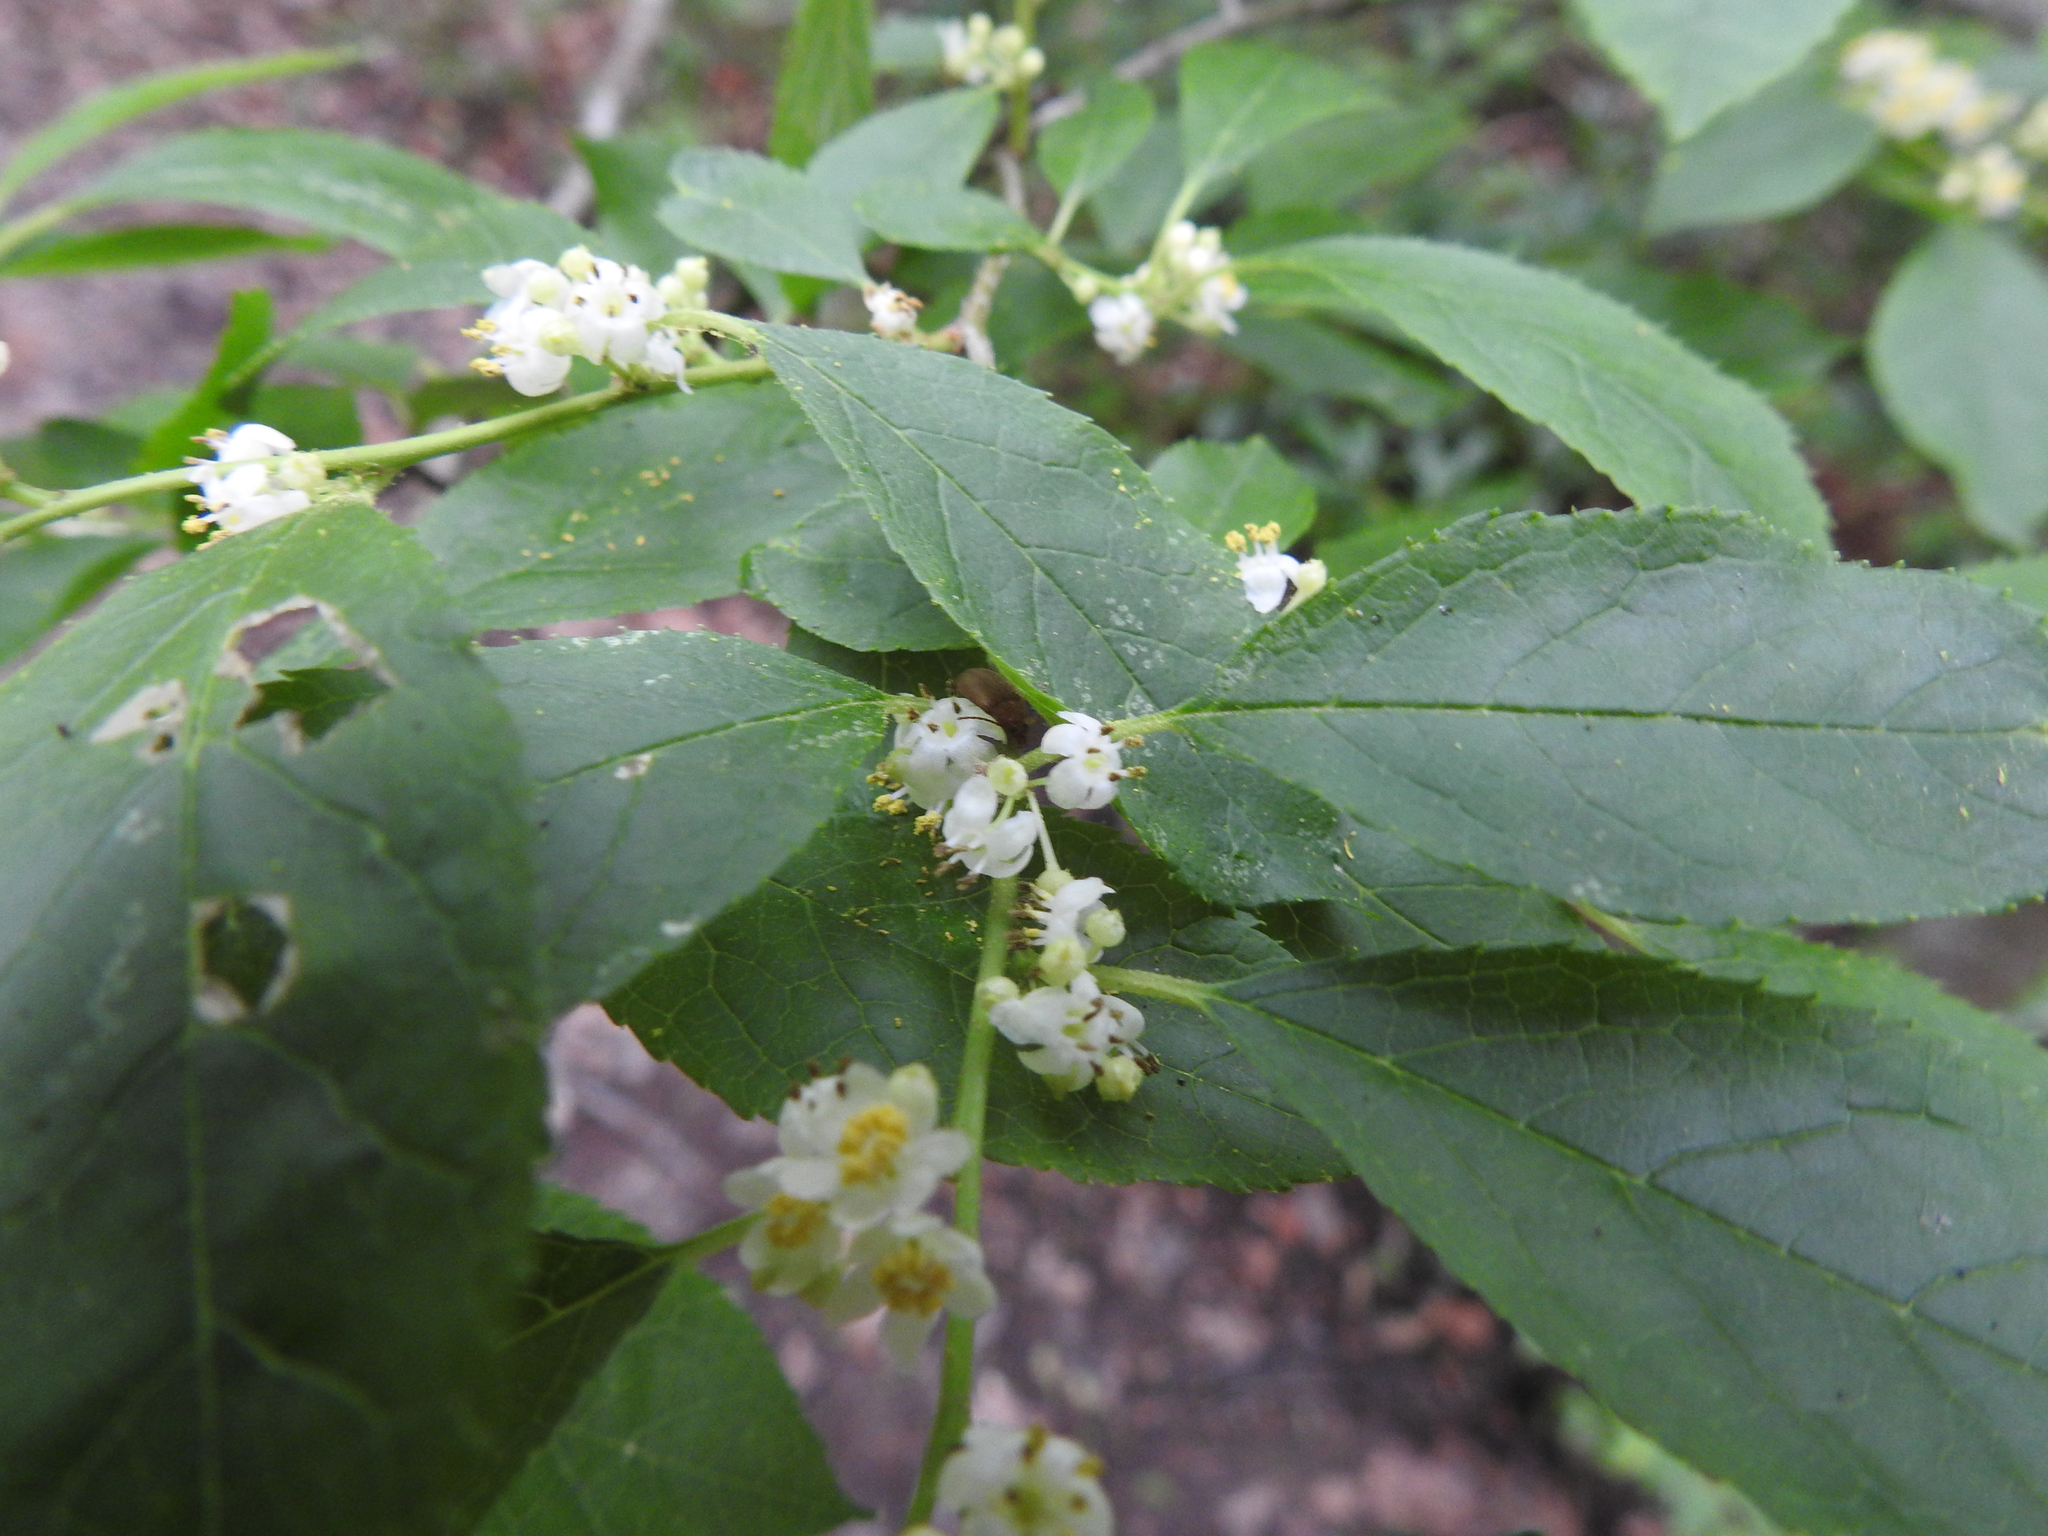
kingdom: Plantae
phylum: Tracheophyta
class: Magnoliopsida
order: Aquifoliales
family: Aquifoliaceae
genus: Ilex
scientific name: Ilex verticillata
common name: Virginia winterberry
